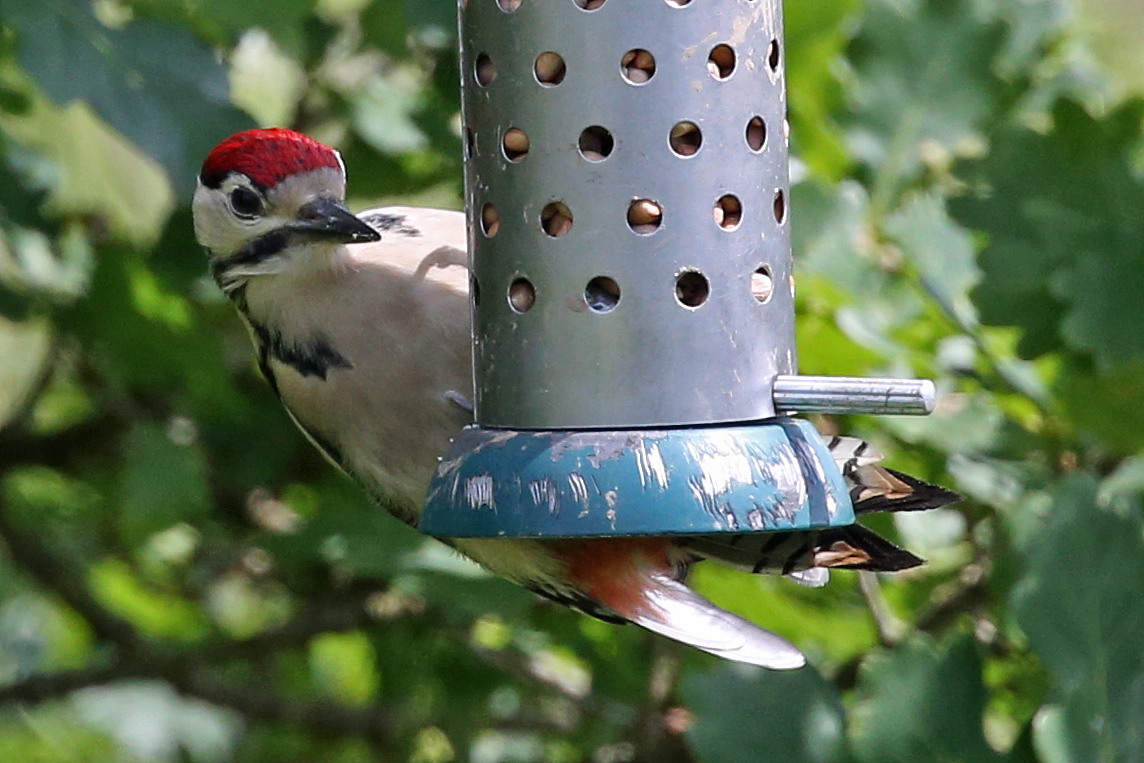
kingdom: Animalia
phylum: Chordata
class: Aves
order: Piciformes
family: Picidae
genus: Dendrocopos
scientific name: Dendrocopos major
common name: Great spotted woodpecker
